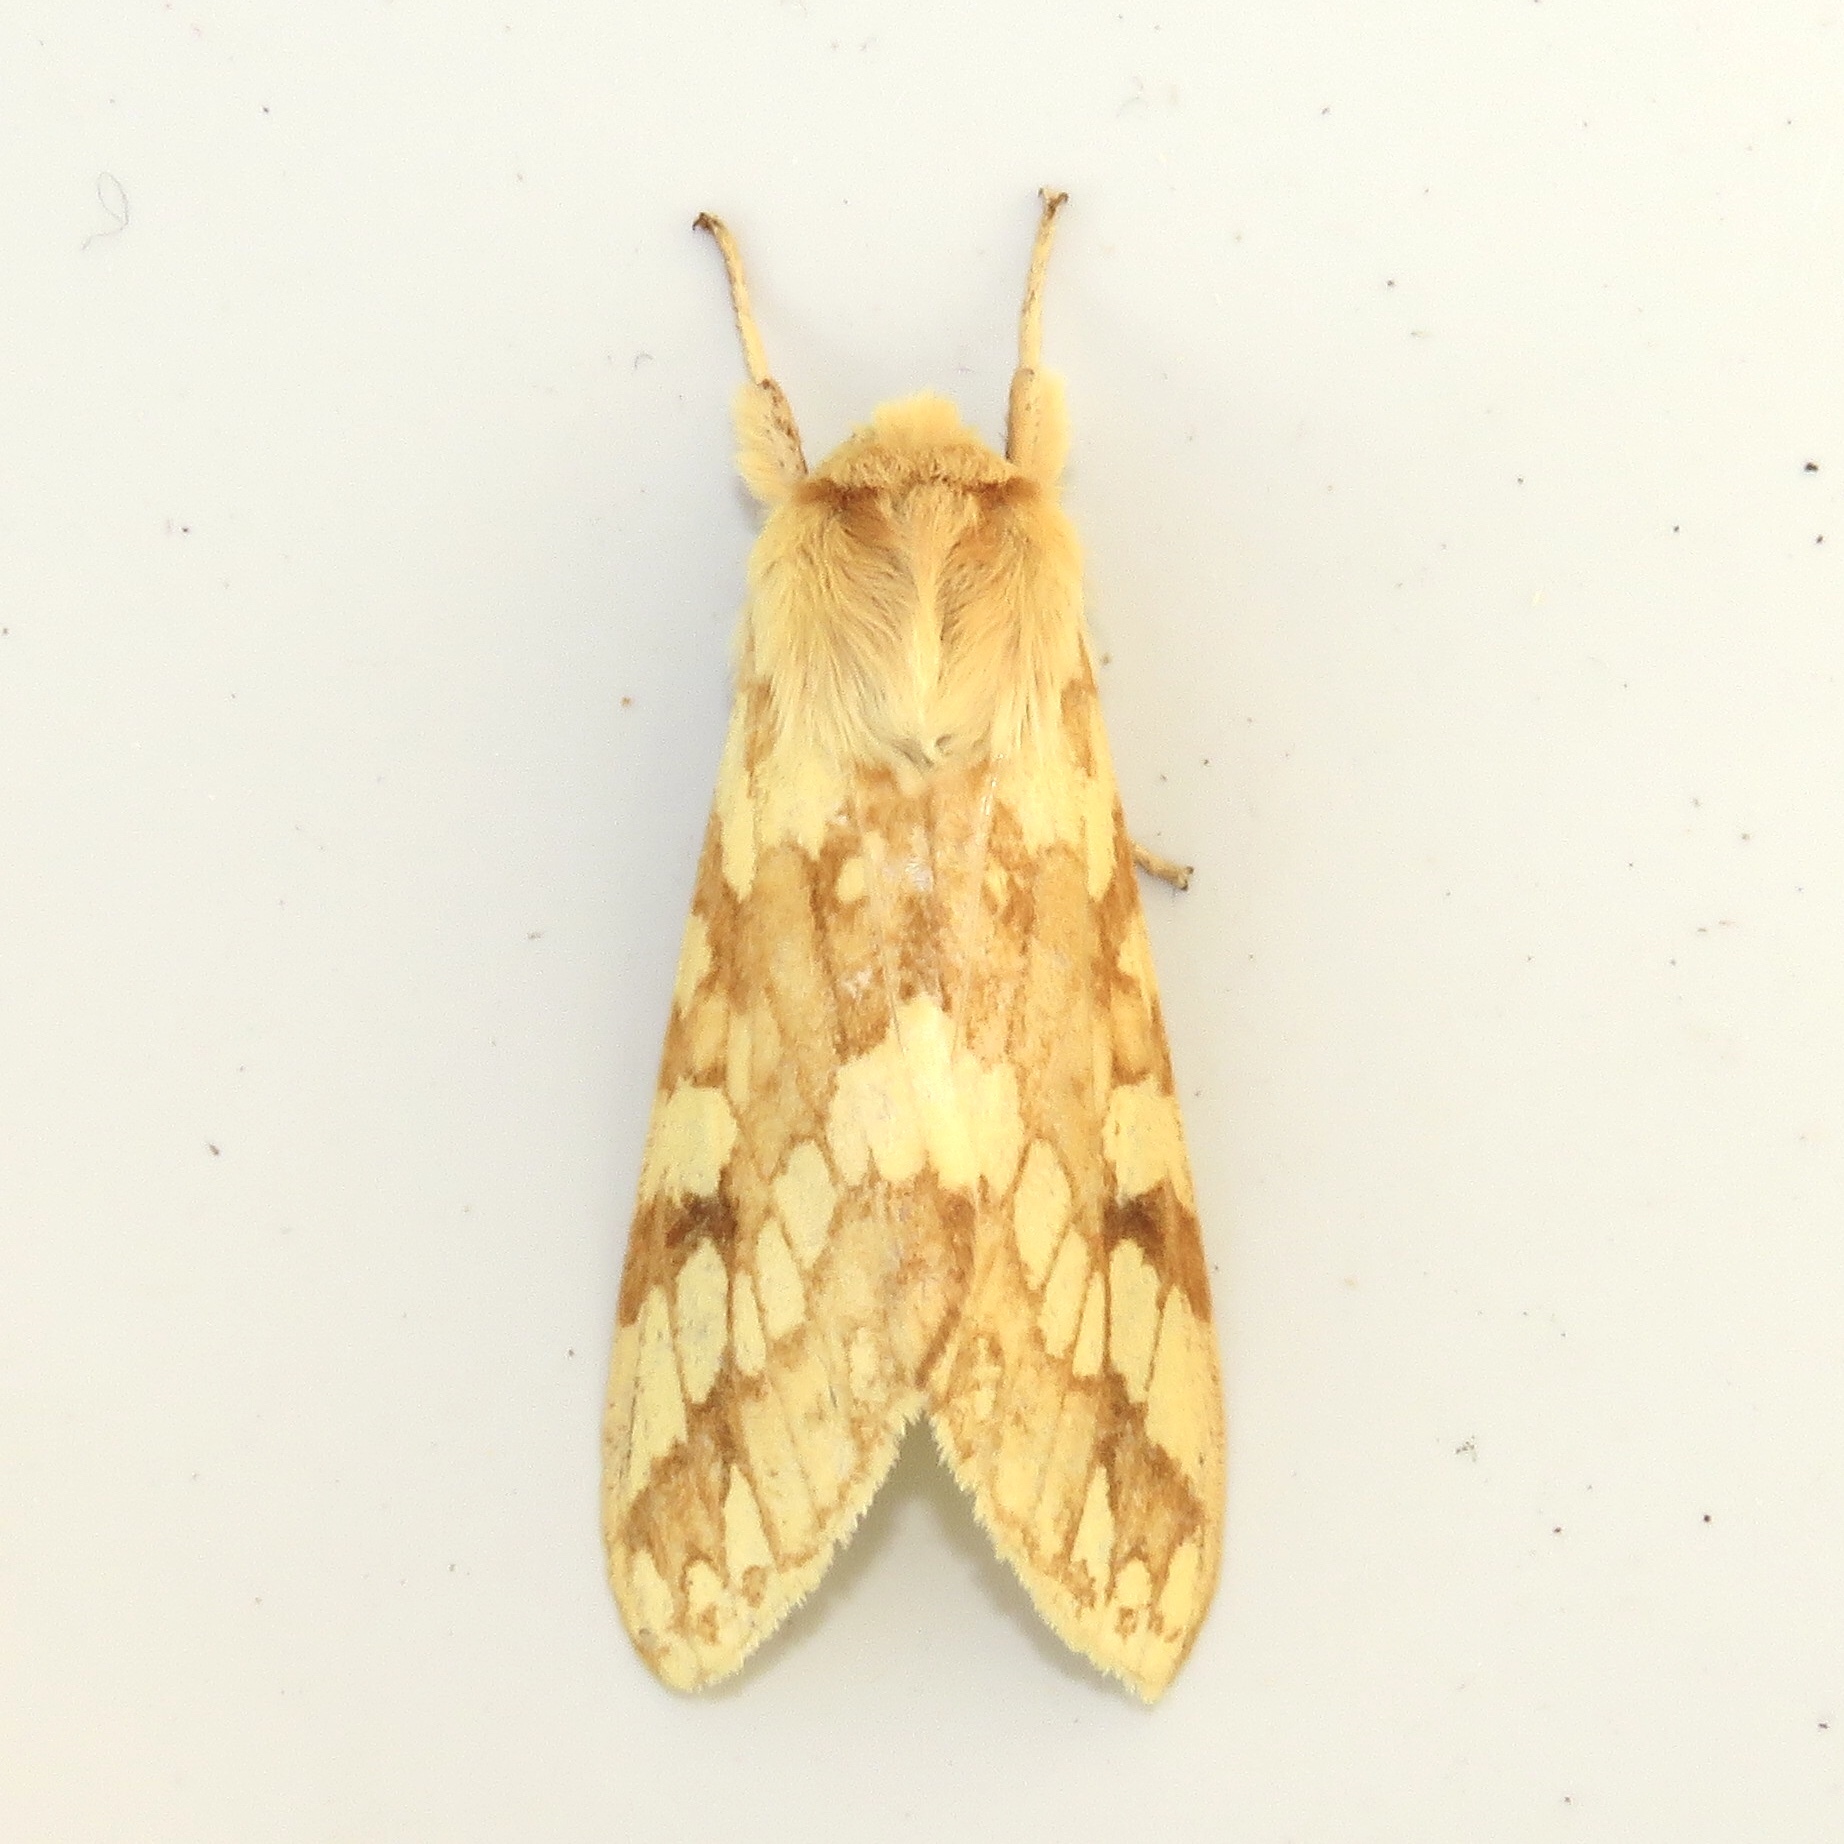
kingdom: Animalia
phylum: Arthropoda
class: Insecta
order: Lepidoptera
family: Erebidae
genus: Lophocampa
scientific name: Lophocampa maculata
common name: Spotted tussock moth
